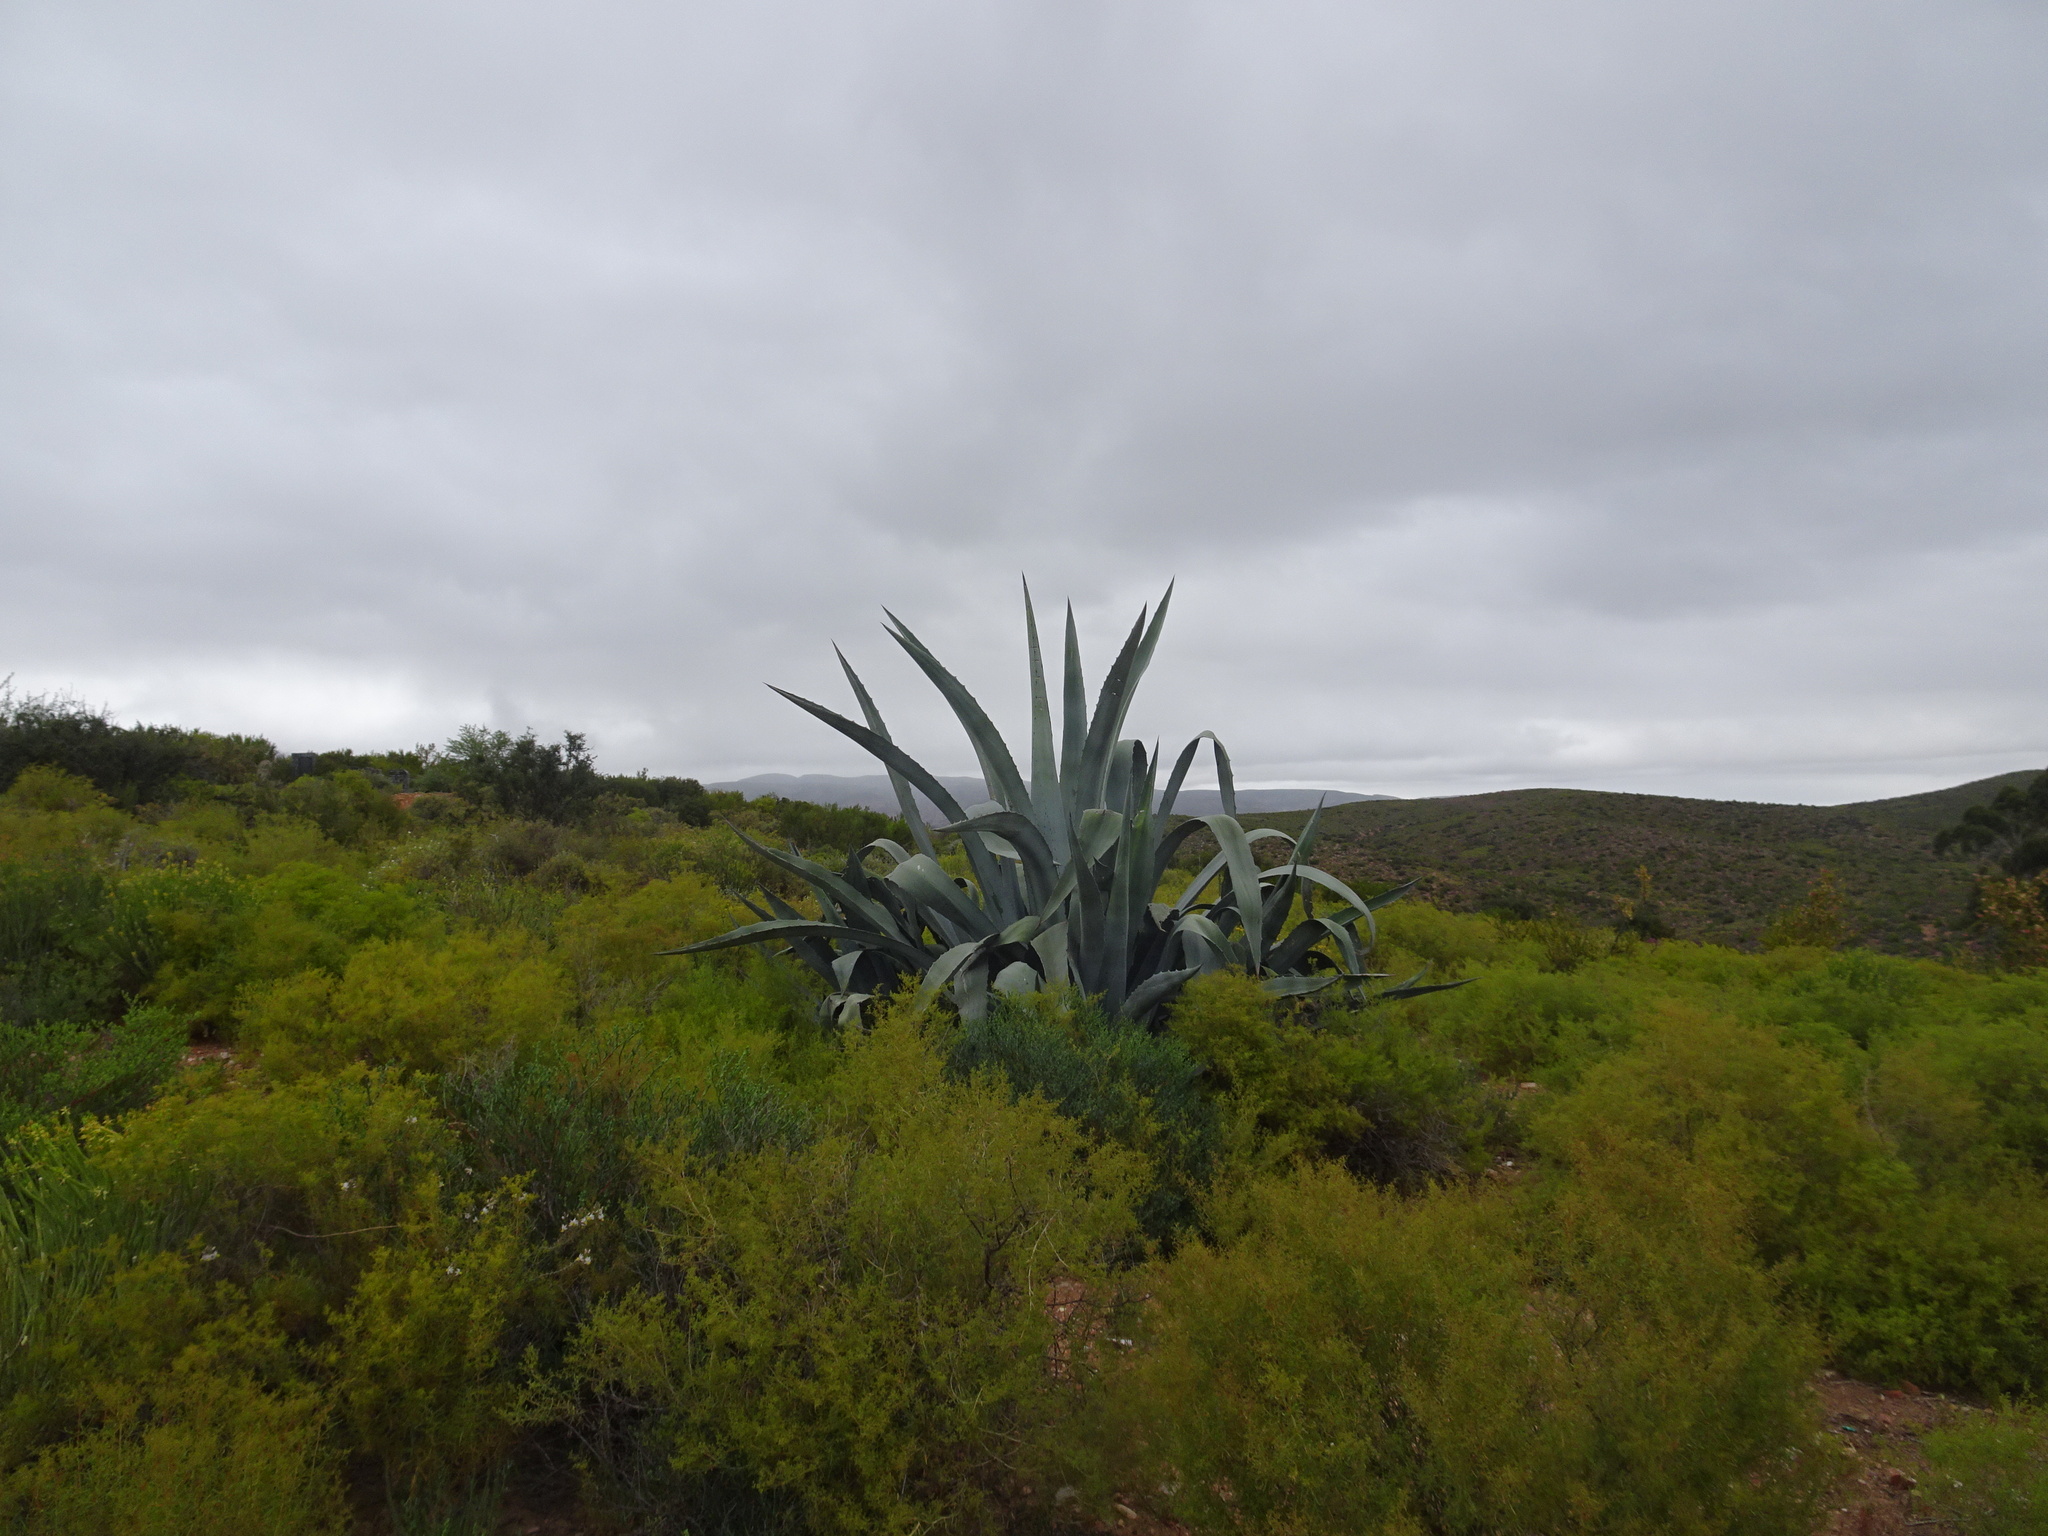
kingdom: Plantae
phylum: Tracheophyta
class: Liliopsida
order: Asparagales
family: Asparagaceae
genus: Agave
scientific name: Agave americana
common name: Centuryplant
